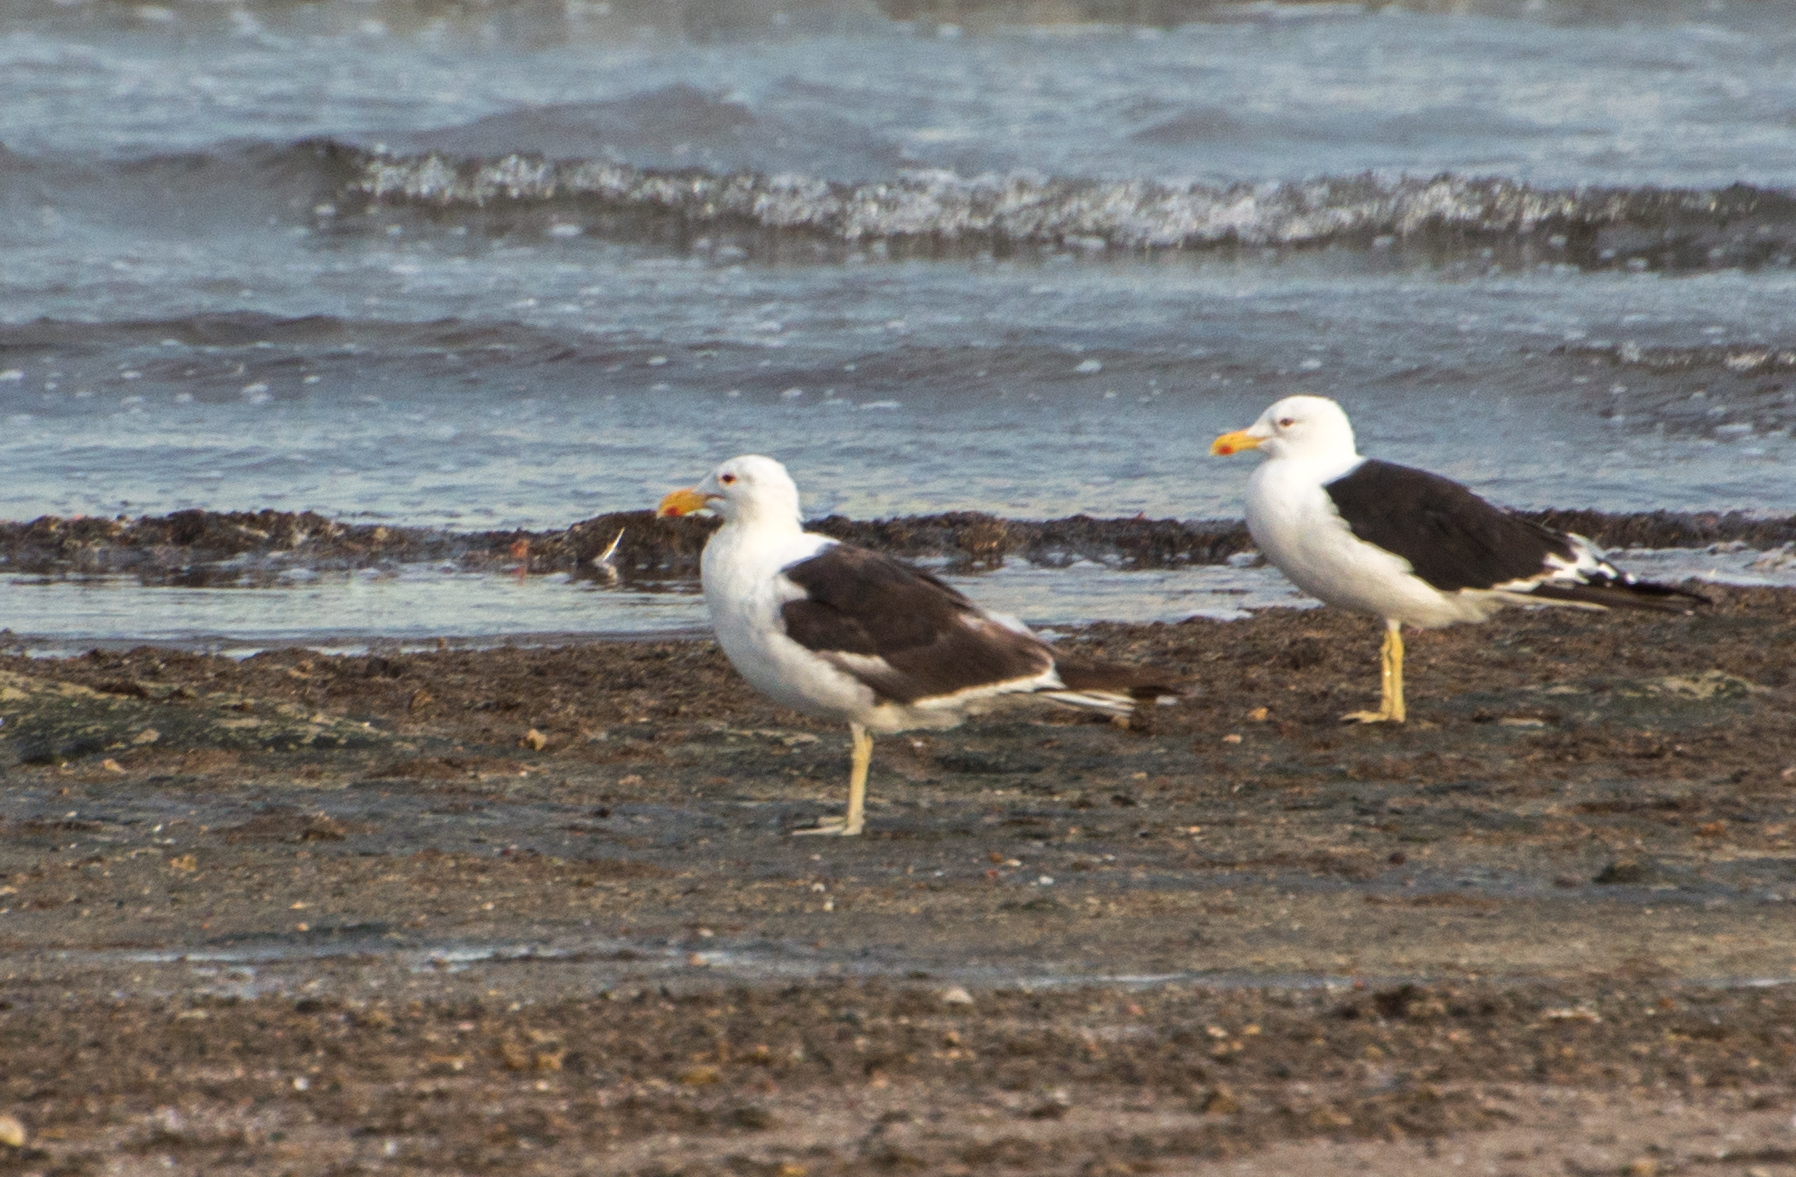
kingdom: Animalia
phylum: Chordata
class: Aves
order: Charadriiformes
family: Laridae
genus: Larus
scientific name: Larus dominicanus
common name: Kelp gull
